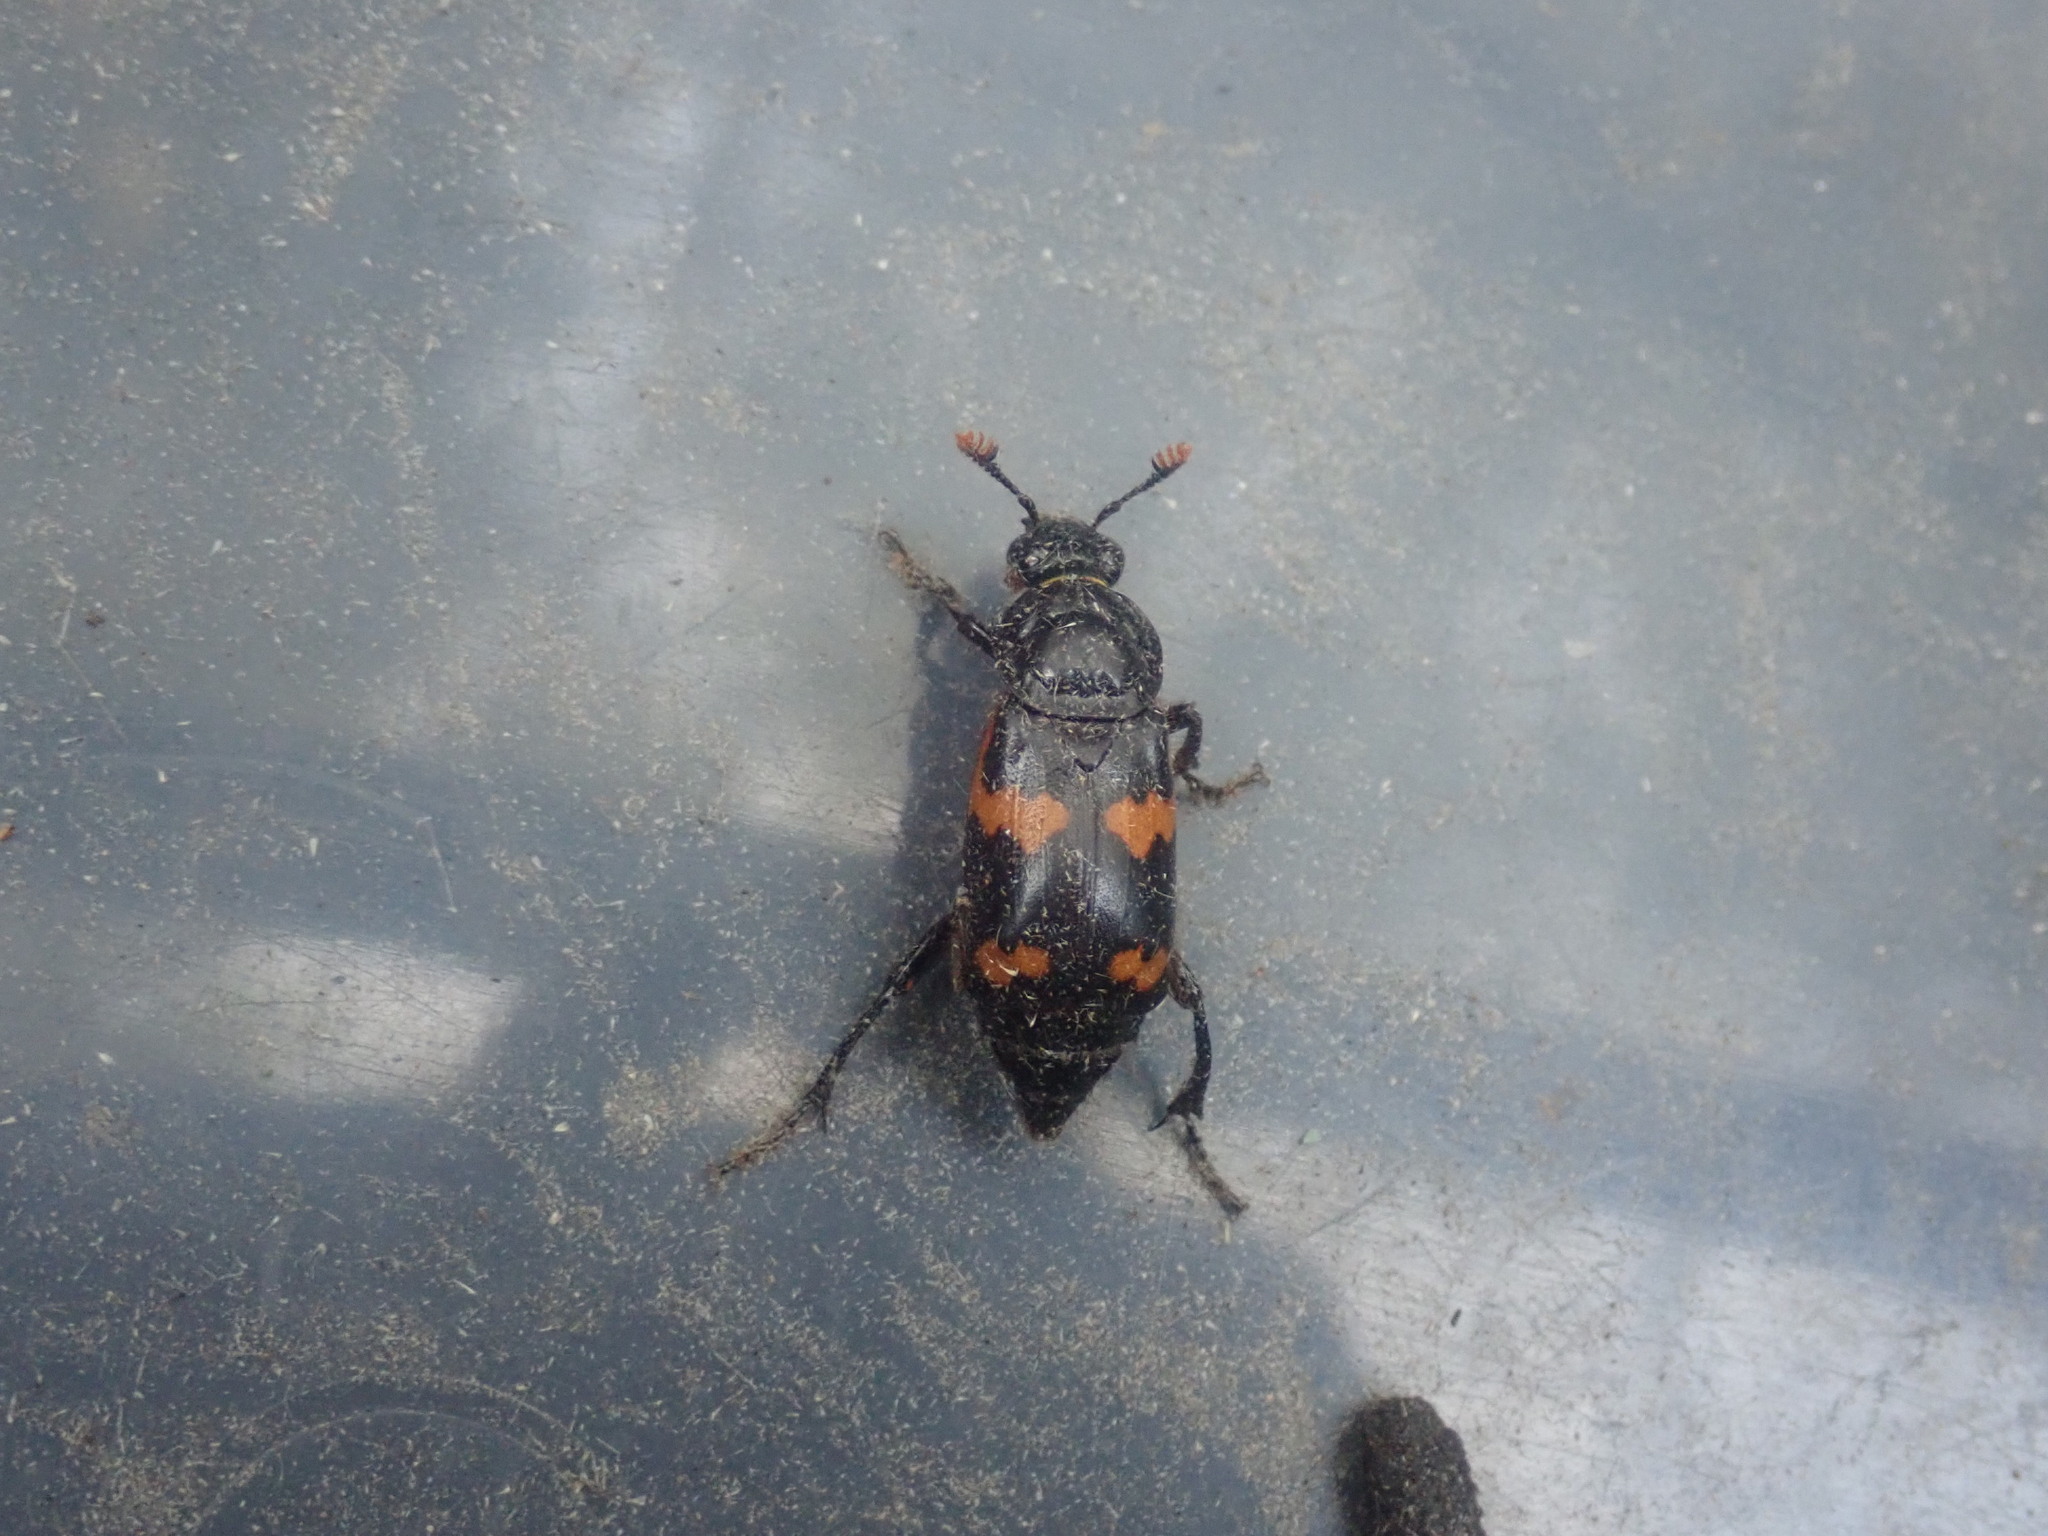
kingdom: Animalia
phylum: Arthropoda
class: Insecta
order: Coleoptera
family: Staphylinidae
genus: Nicrophorus
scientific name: Nicrophorus sayi
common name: Say's burying beetle
